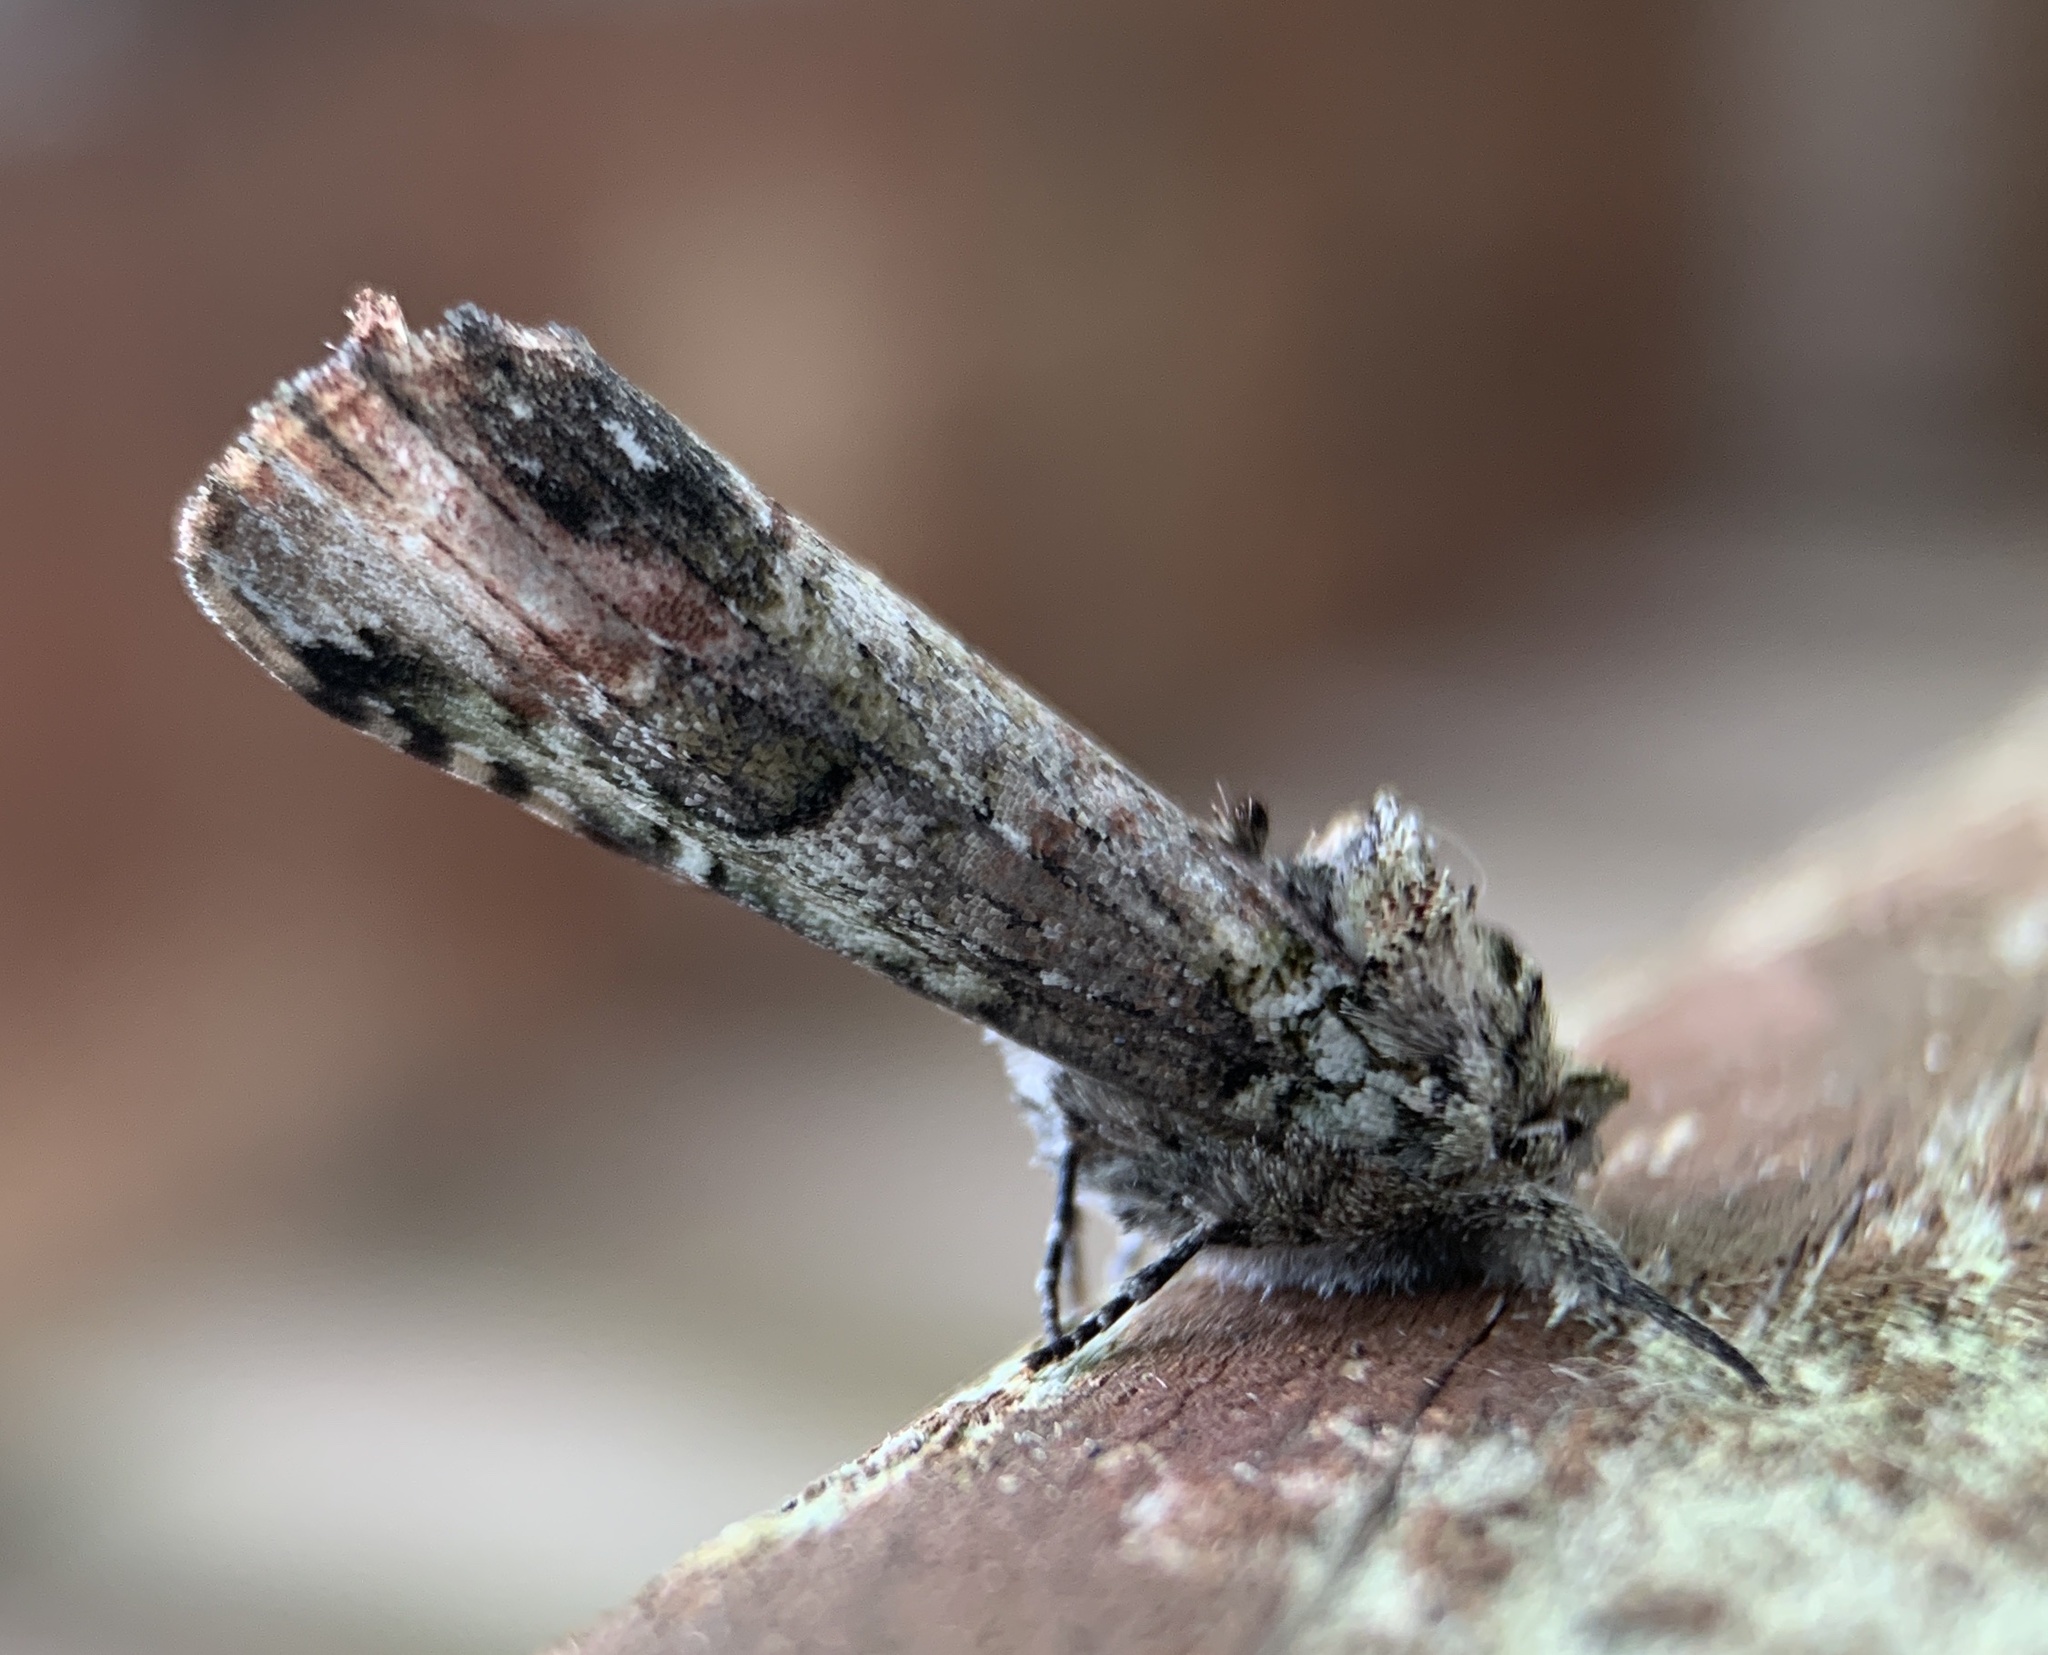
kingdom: Animalia
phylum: Arthropoda
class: Insecta
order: Lepidoptera
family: Notodontidae
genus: Schizura
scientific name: Schizura
